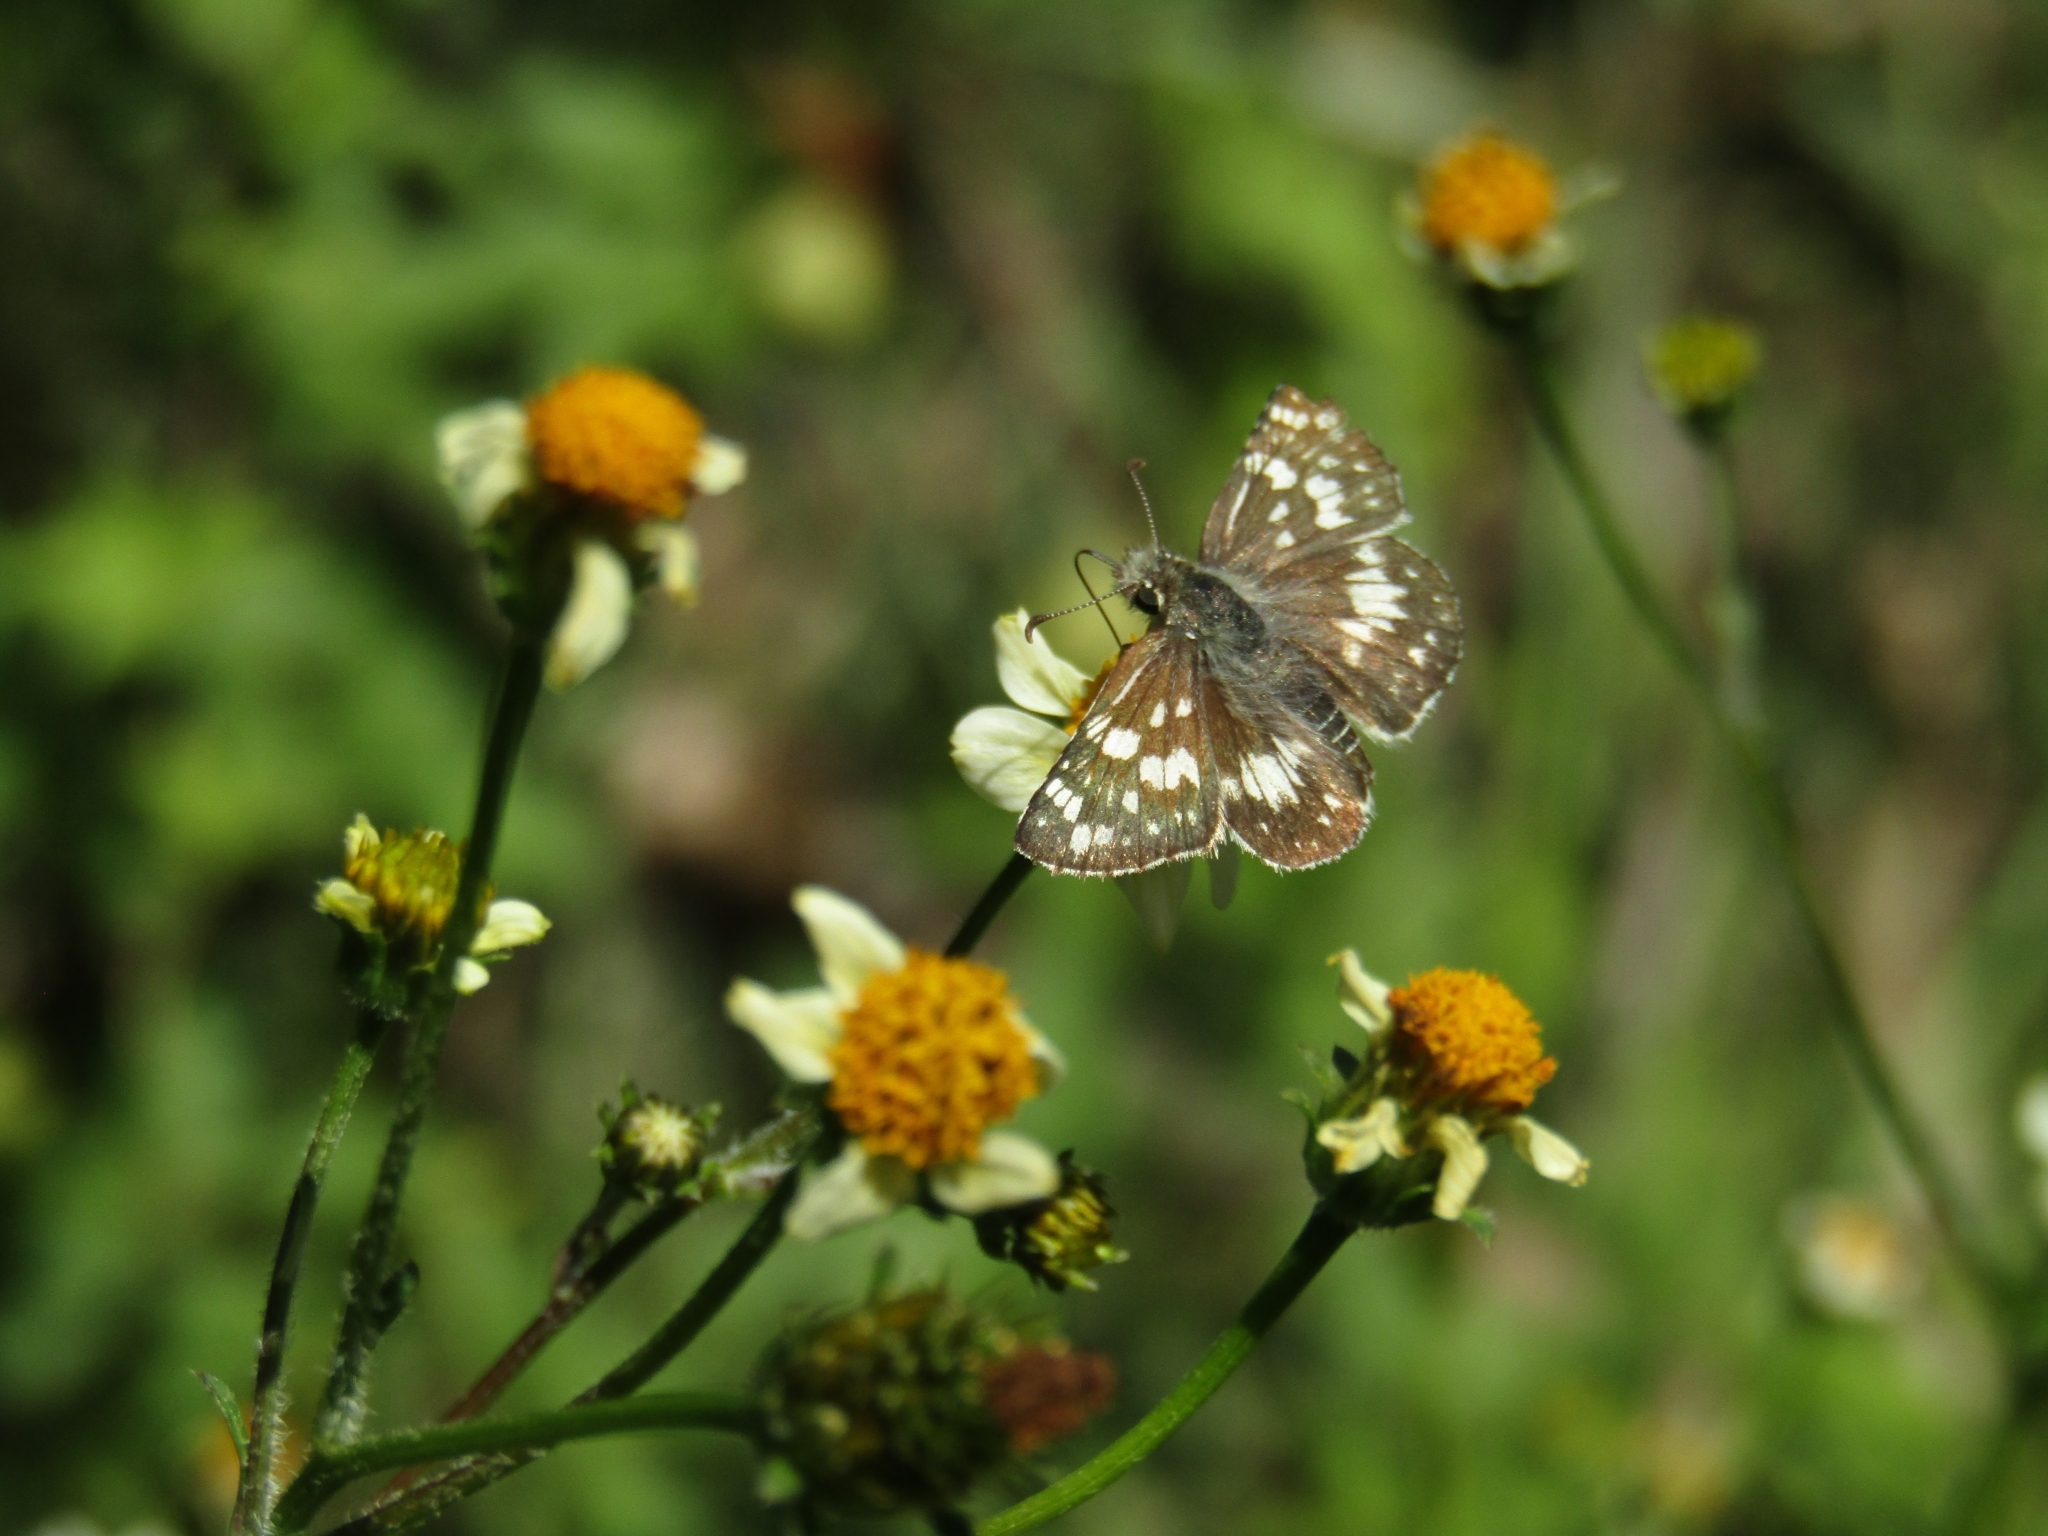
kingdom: Animalia
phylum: Arthropoda
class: Insecta
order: Lepidoptera
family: Hesperiidae
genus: Burnsius
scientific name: Burnsius orcynoides
